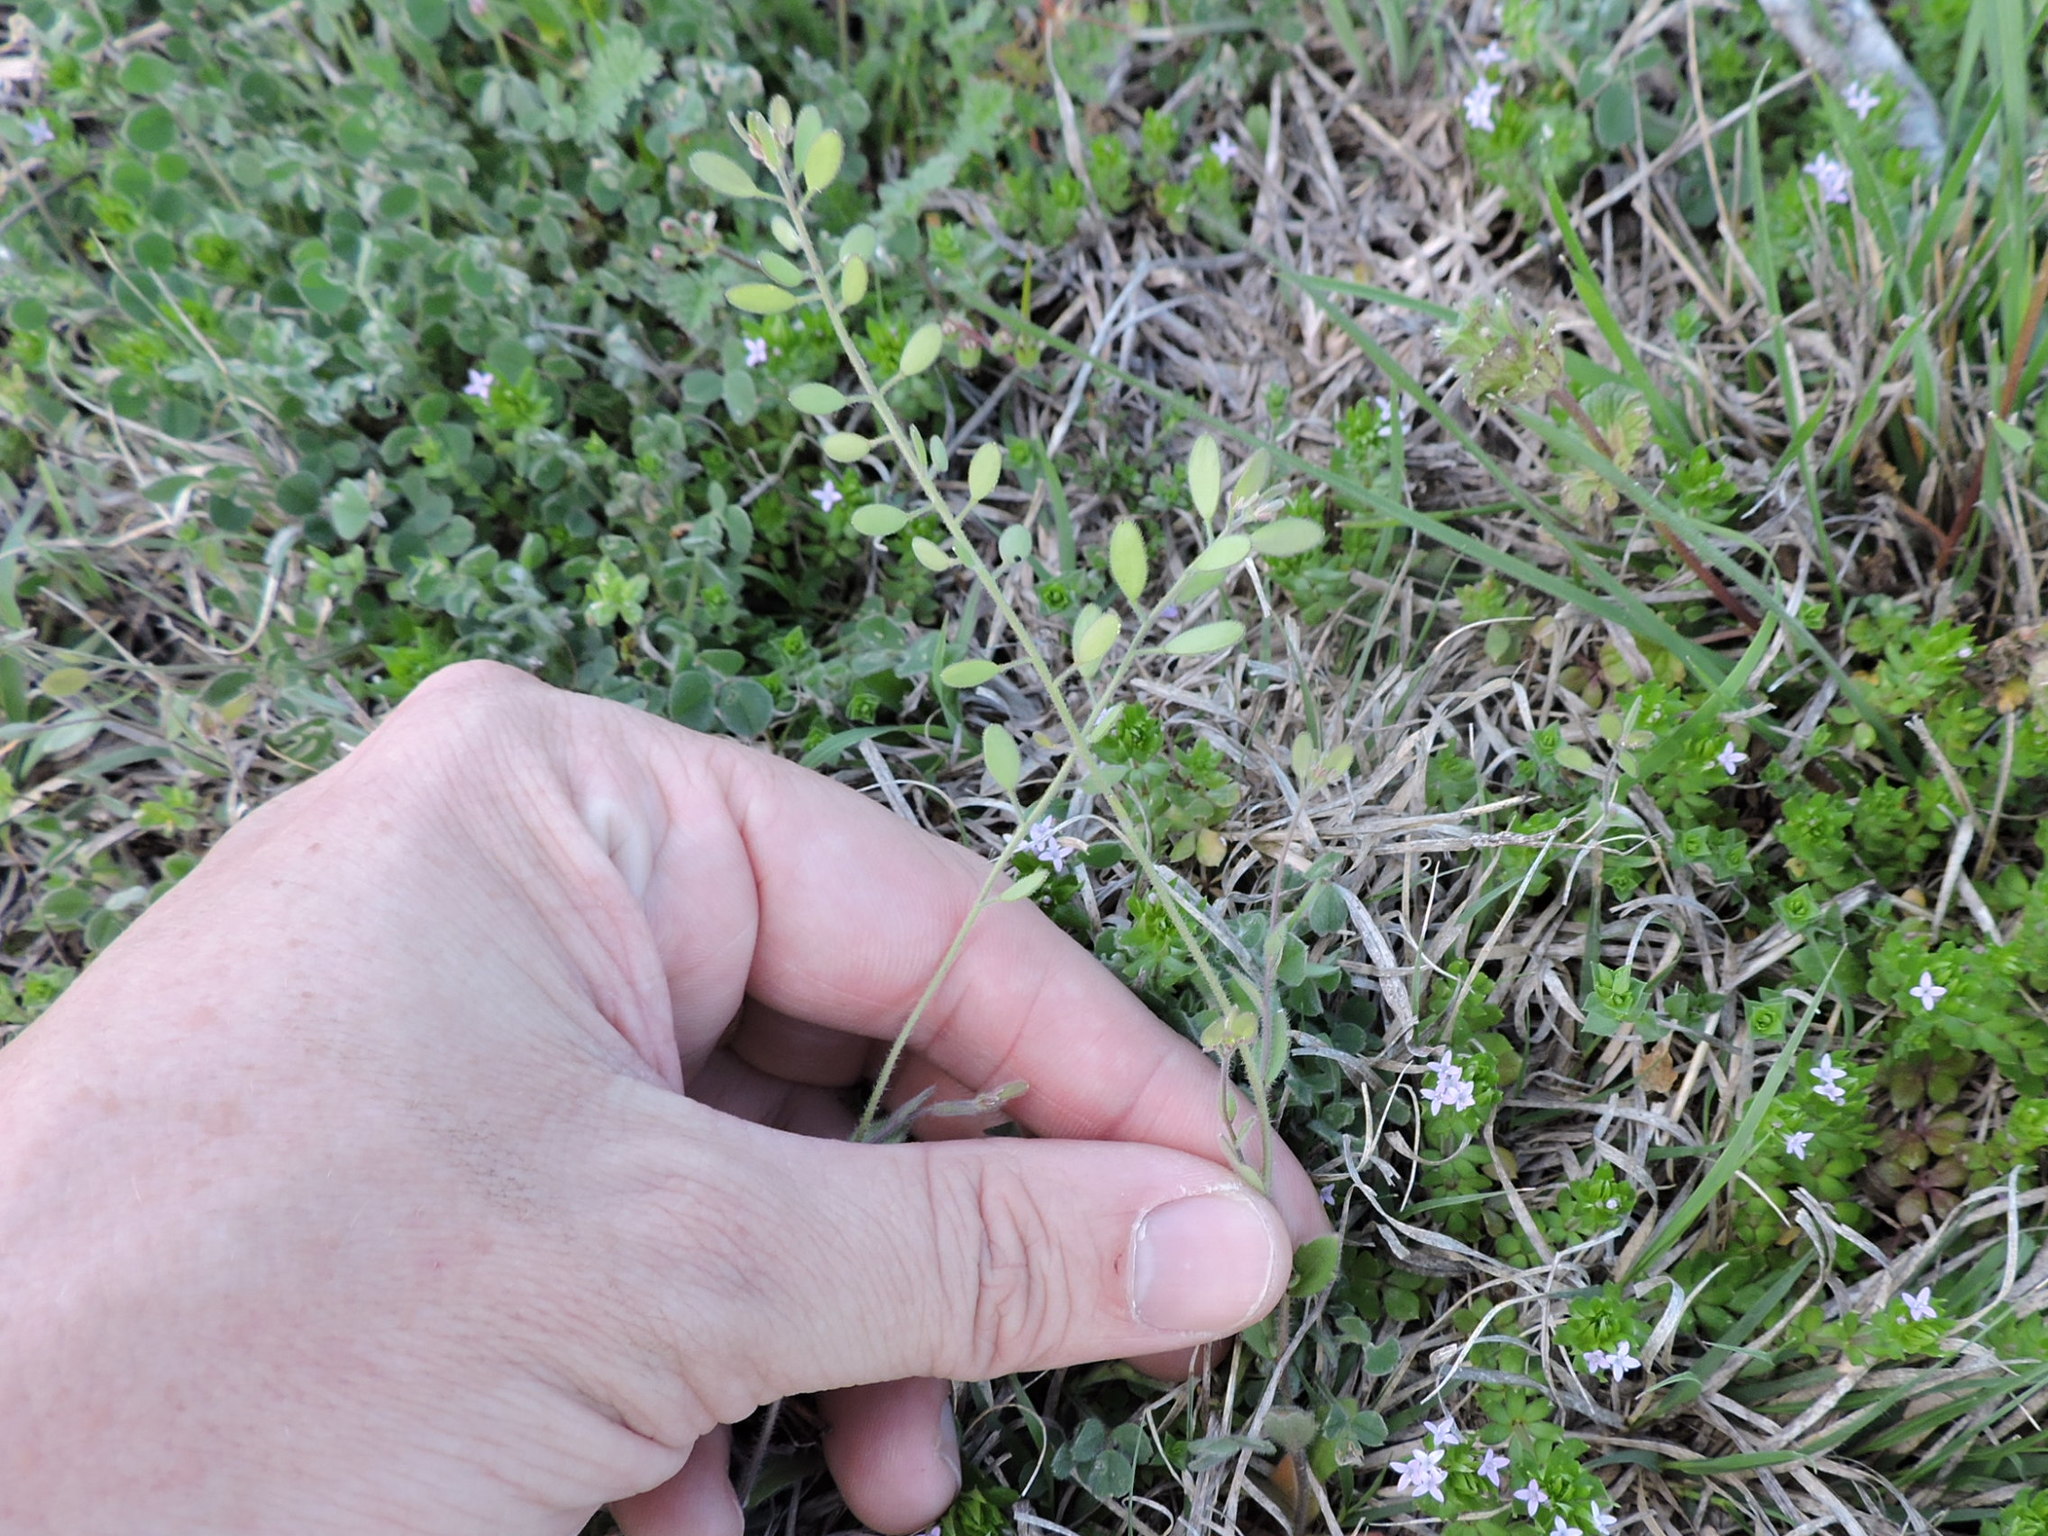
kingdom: Plantae
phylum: Tracheophyta
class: Magnoliopsida
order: Brassicales
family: Brassicaceae
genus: Tomostima
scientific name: Tomostima platycarpa
